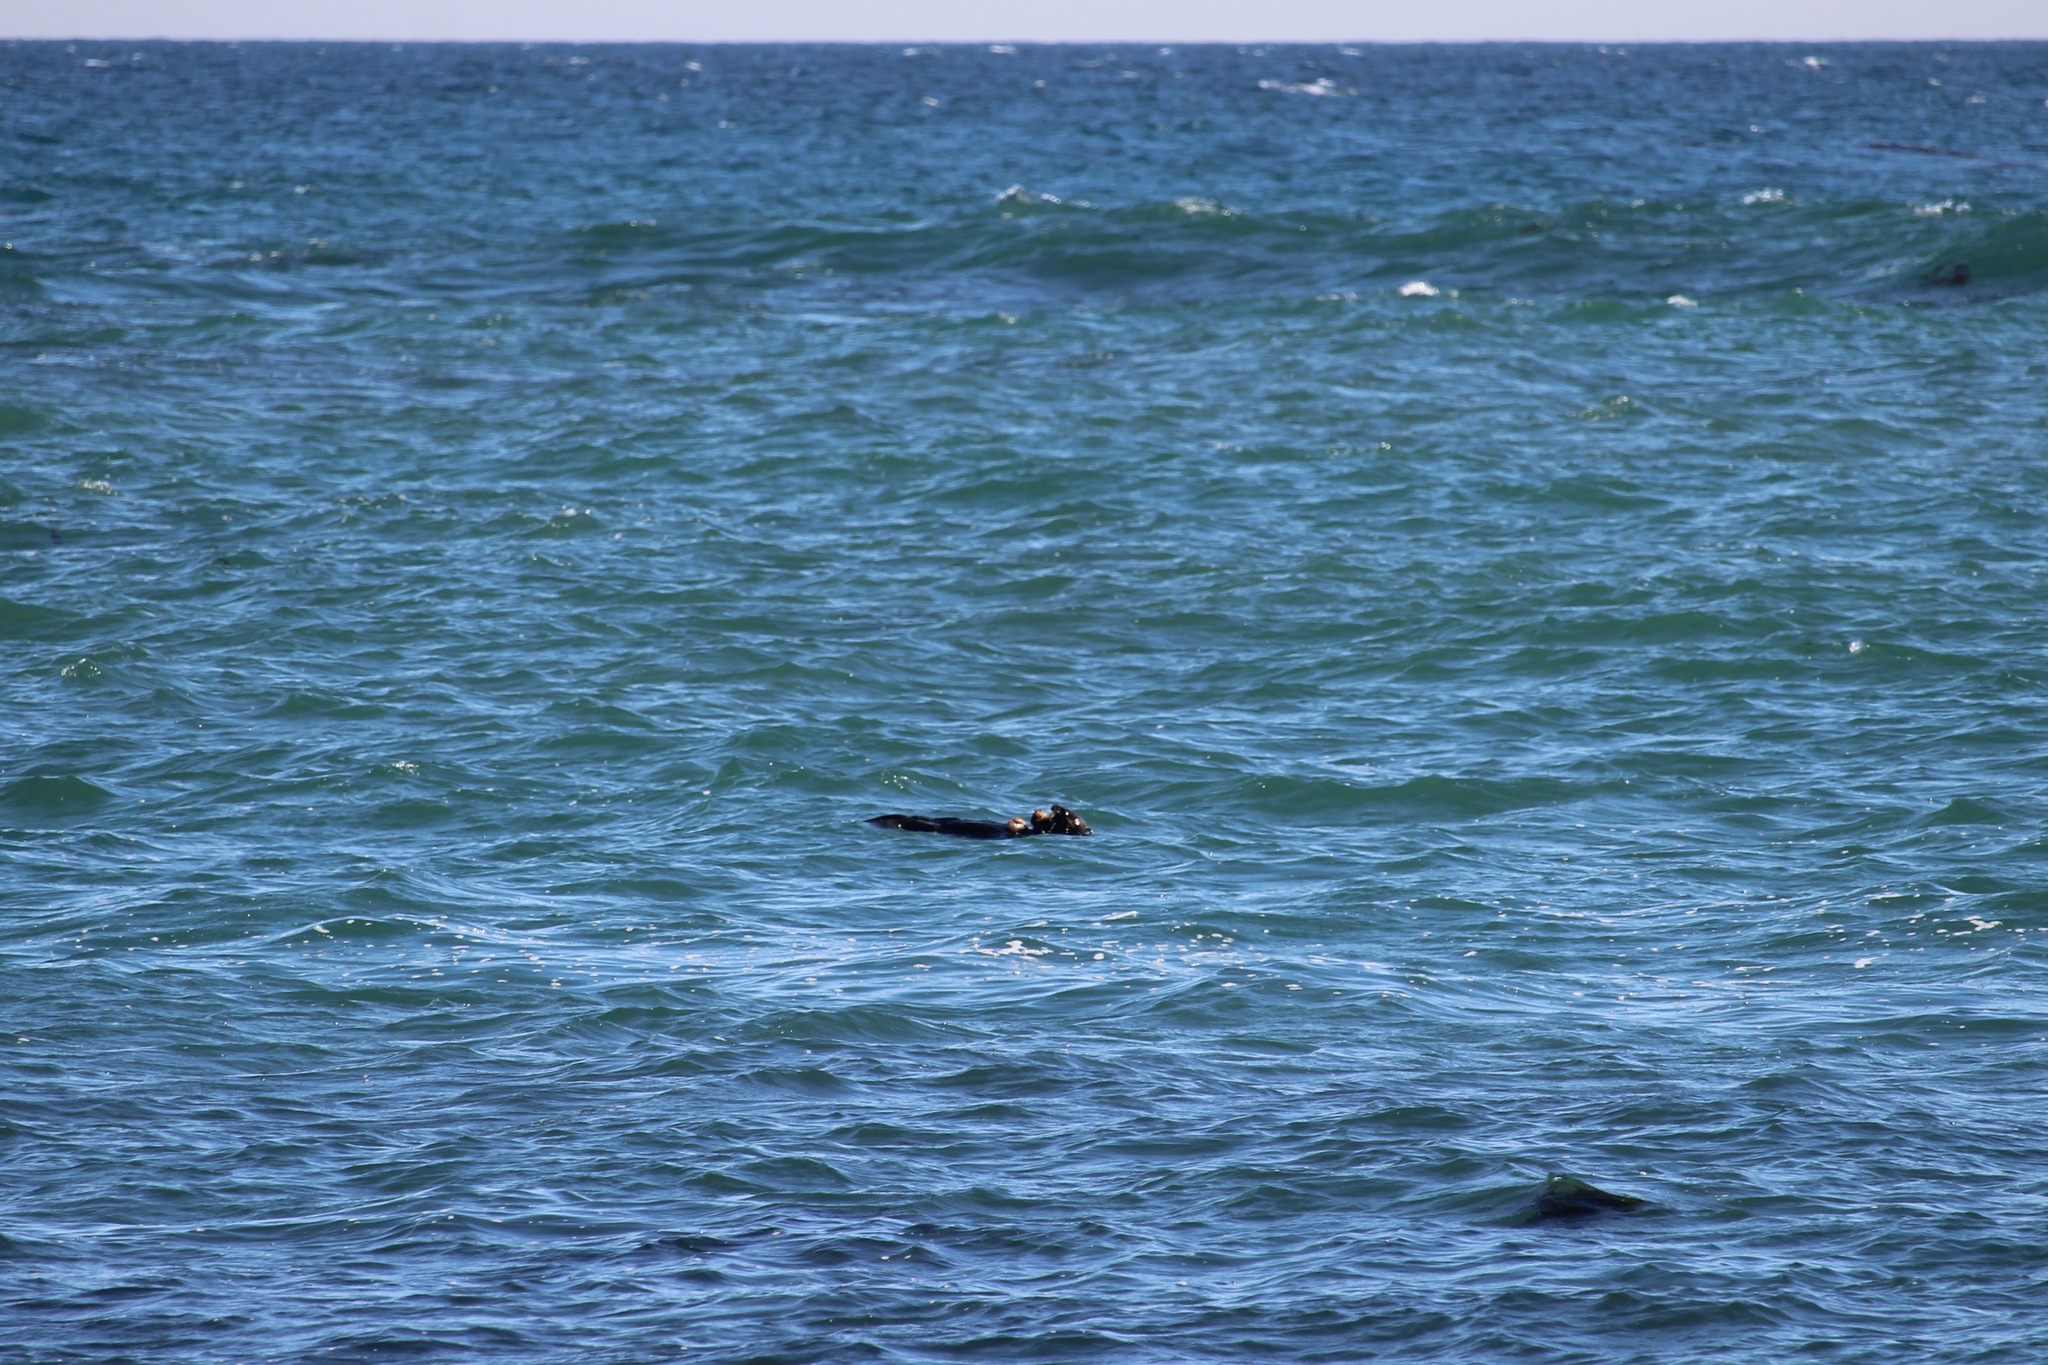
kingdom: Animalia
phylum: Chordata
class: Mammalia
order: Carnivora
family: Mustelidae
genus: Enhydra
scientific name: Enhydra lutris
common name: Sea otter
